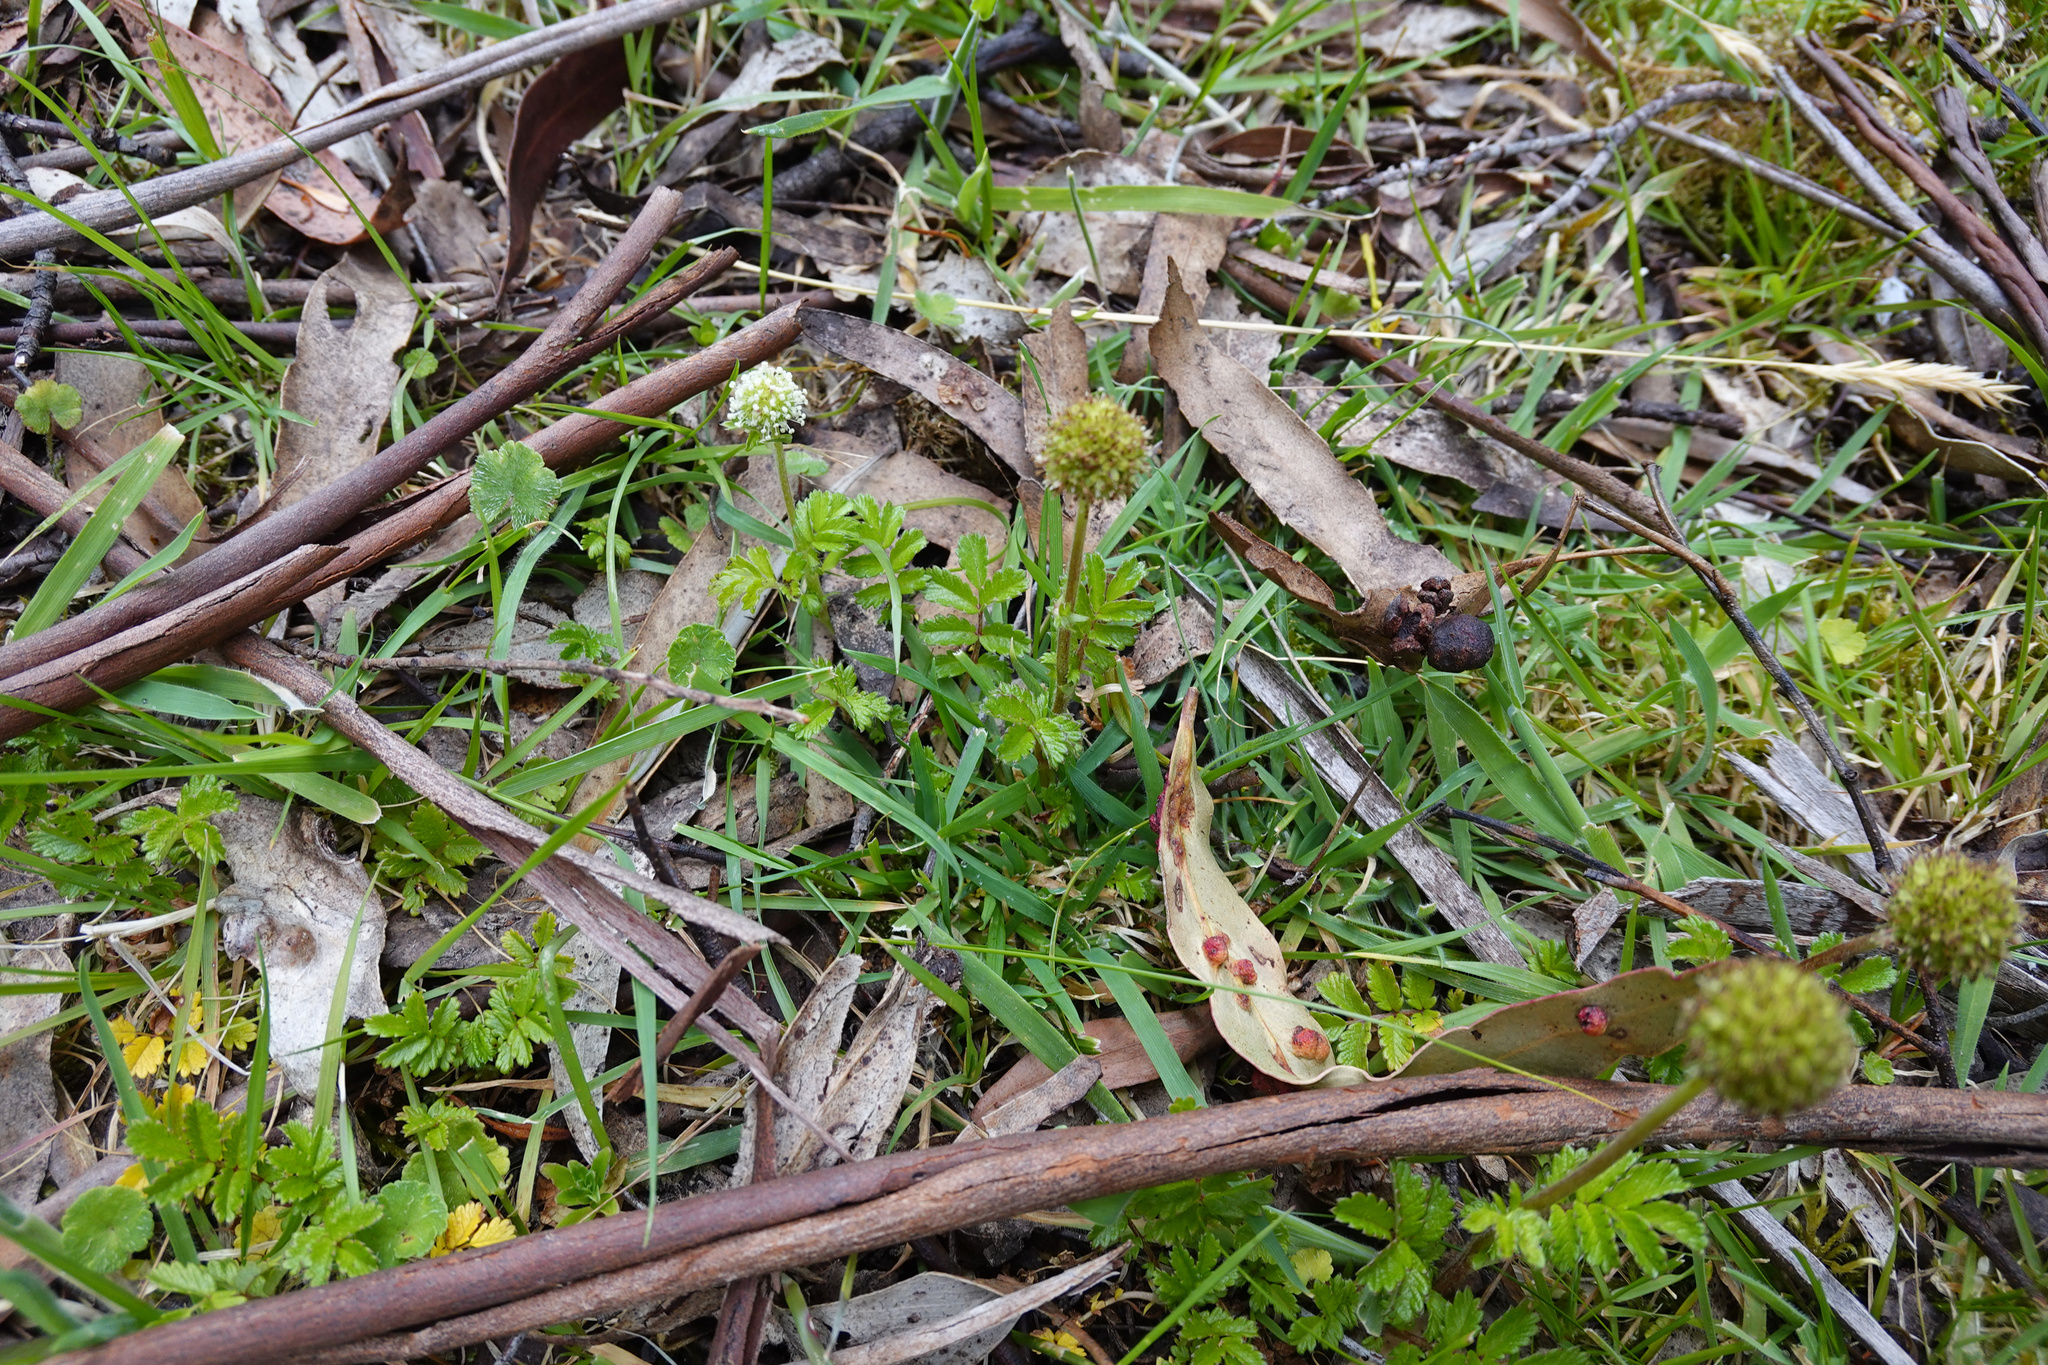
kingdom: Plantae
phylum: Tracheophyta
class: Magnoliopsida
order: Rosales
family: Rosaceae
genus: Acaena
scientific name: Acaena novae-zelandiae
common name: Pirri-pirri-bur
